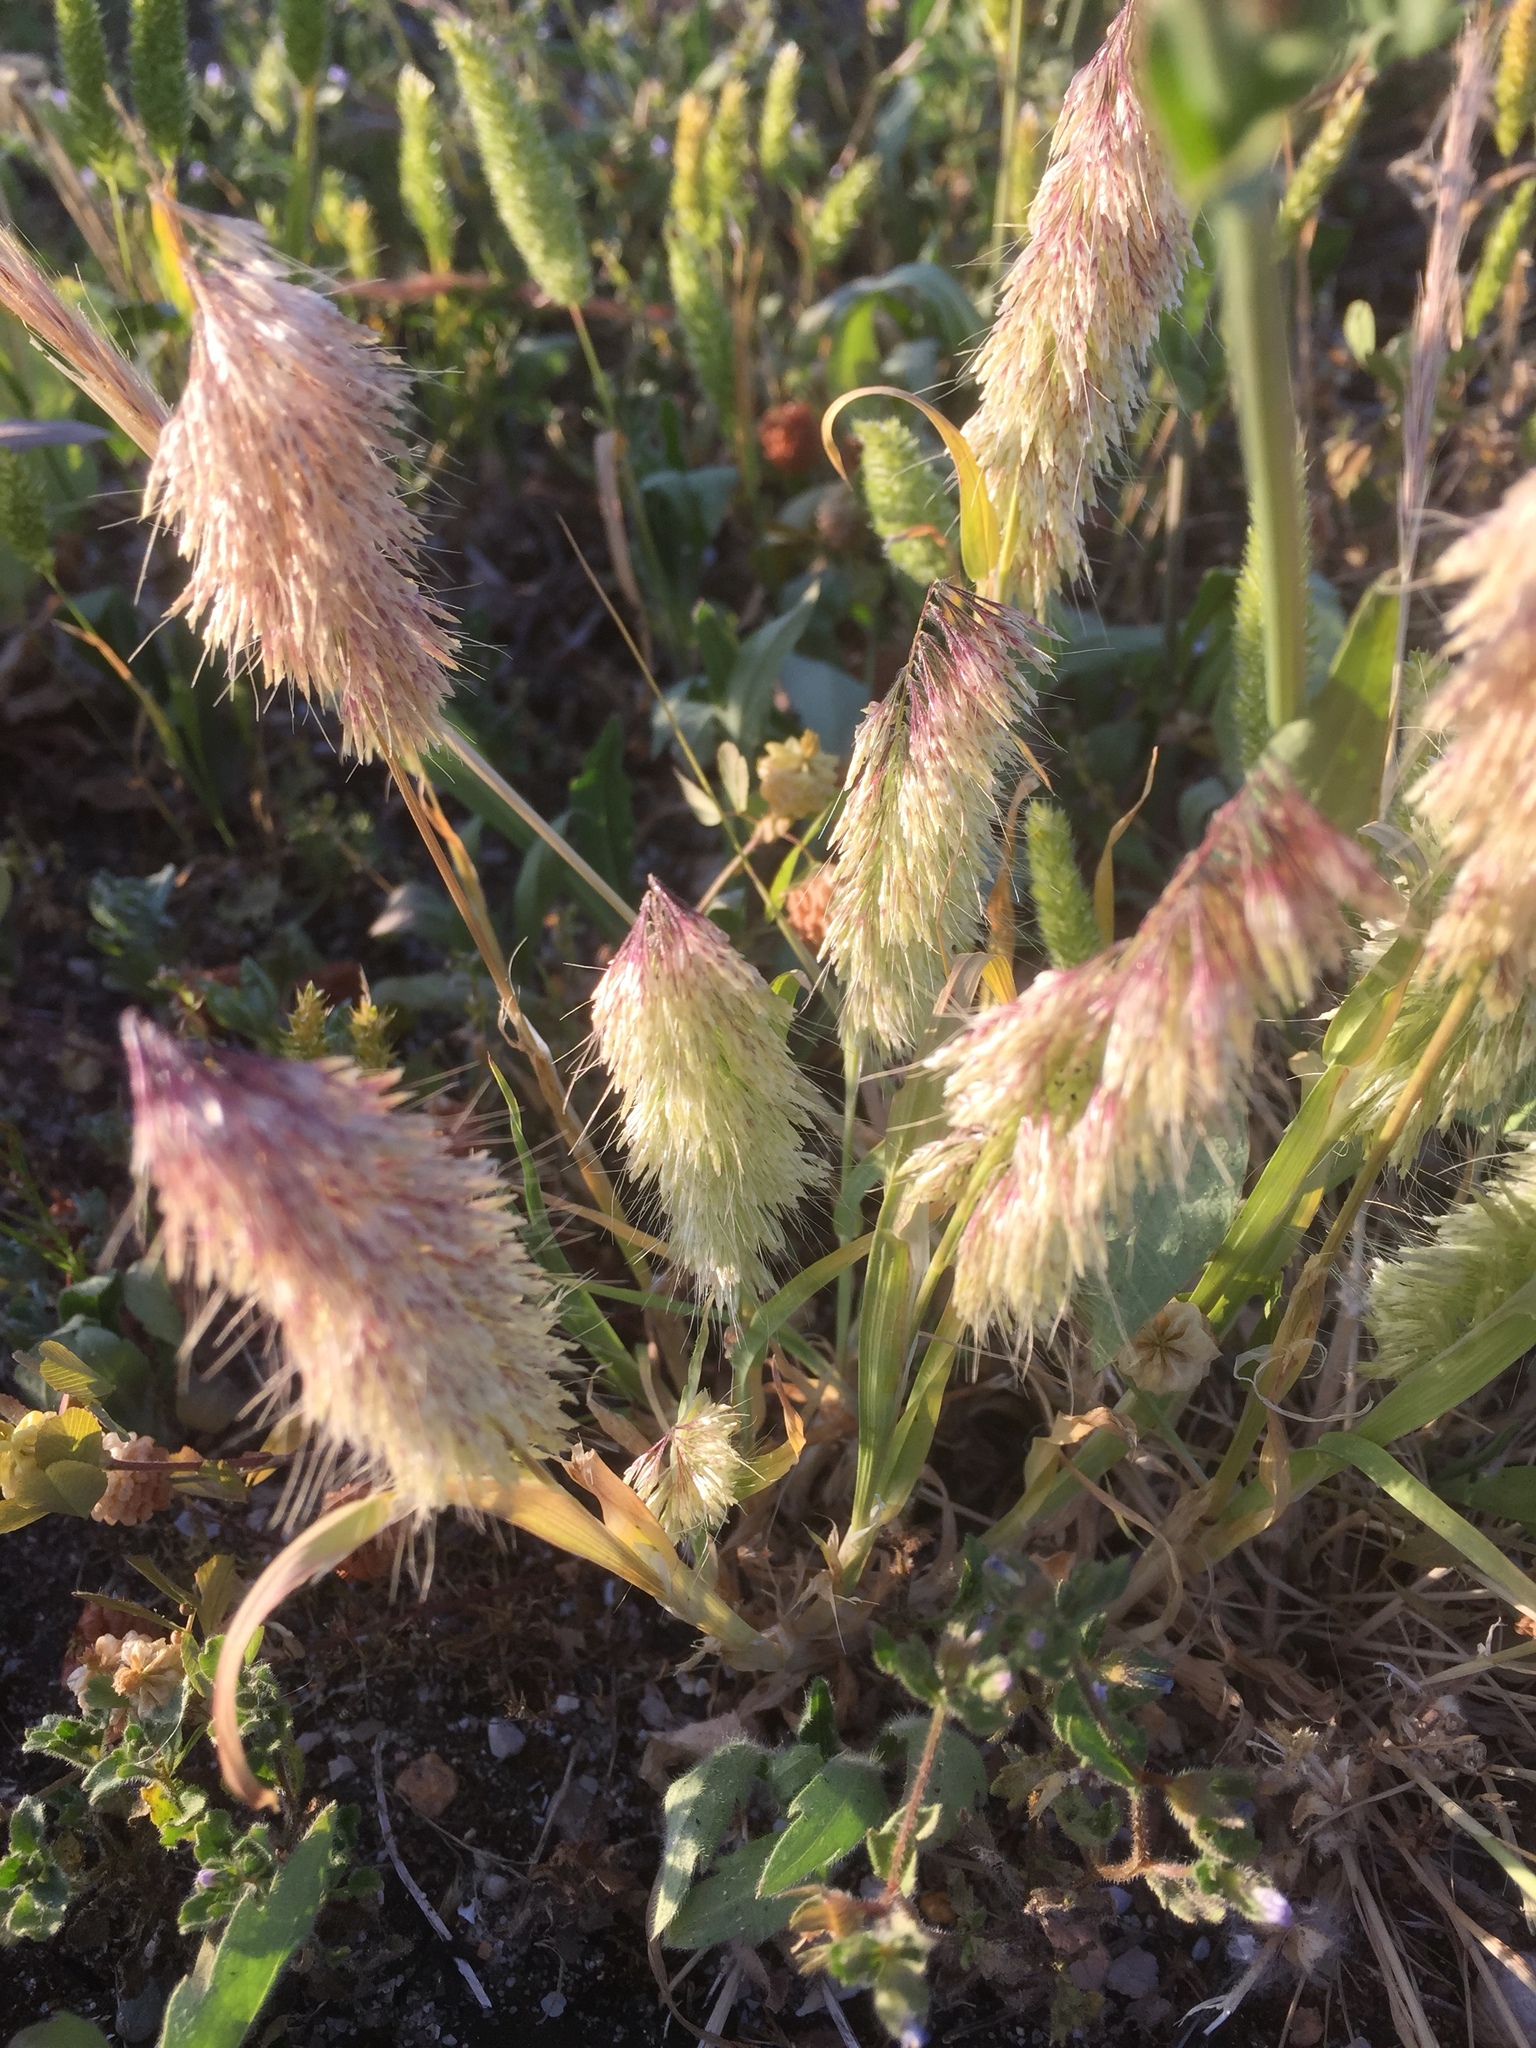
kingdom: Plantae
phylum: Tracheophyta
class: Liliopsida
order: Poales
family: Poaceae
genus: Lamarckia
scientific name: Lamarckia aurea
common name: Golden dog's-tail
